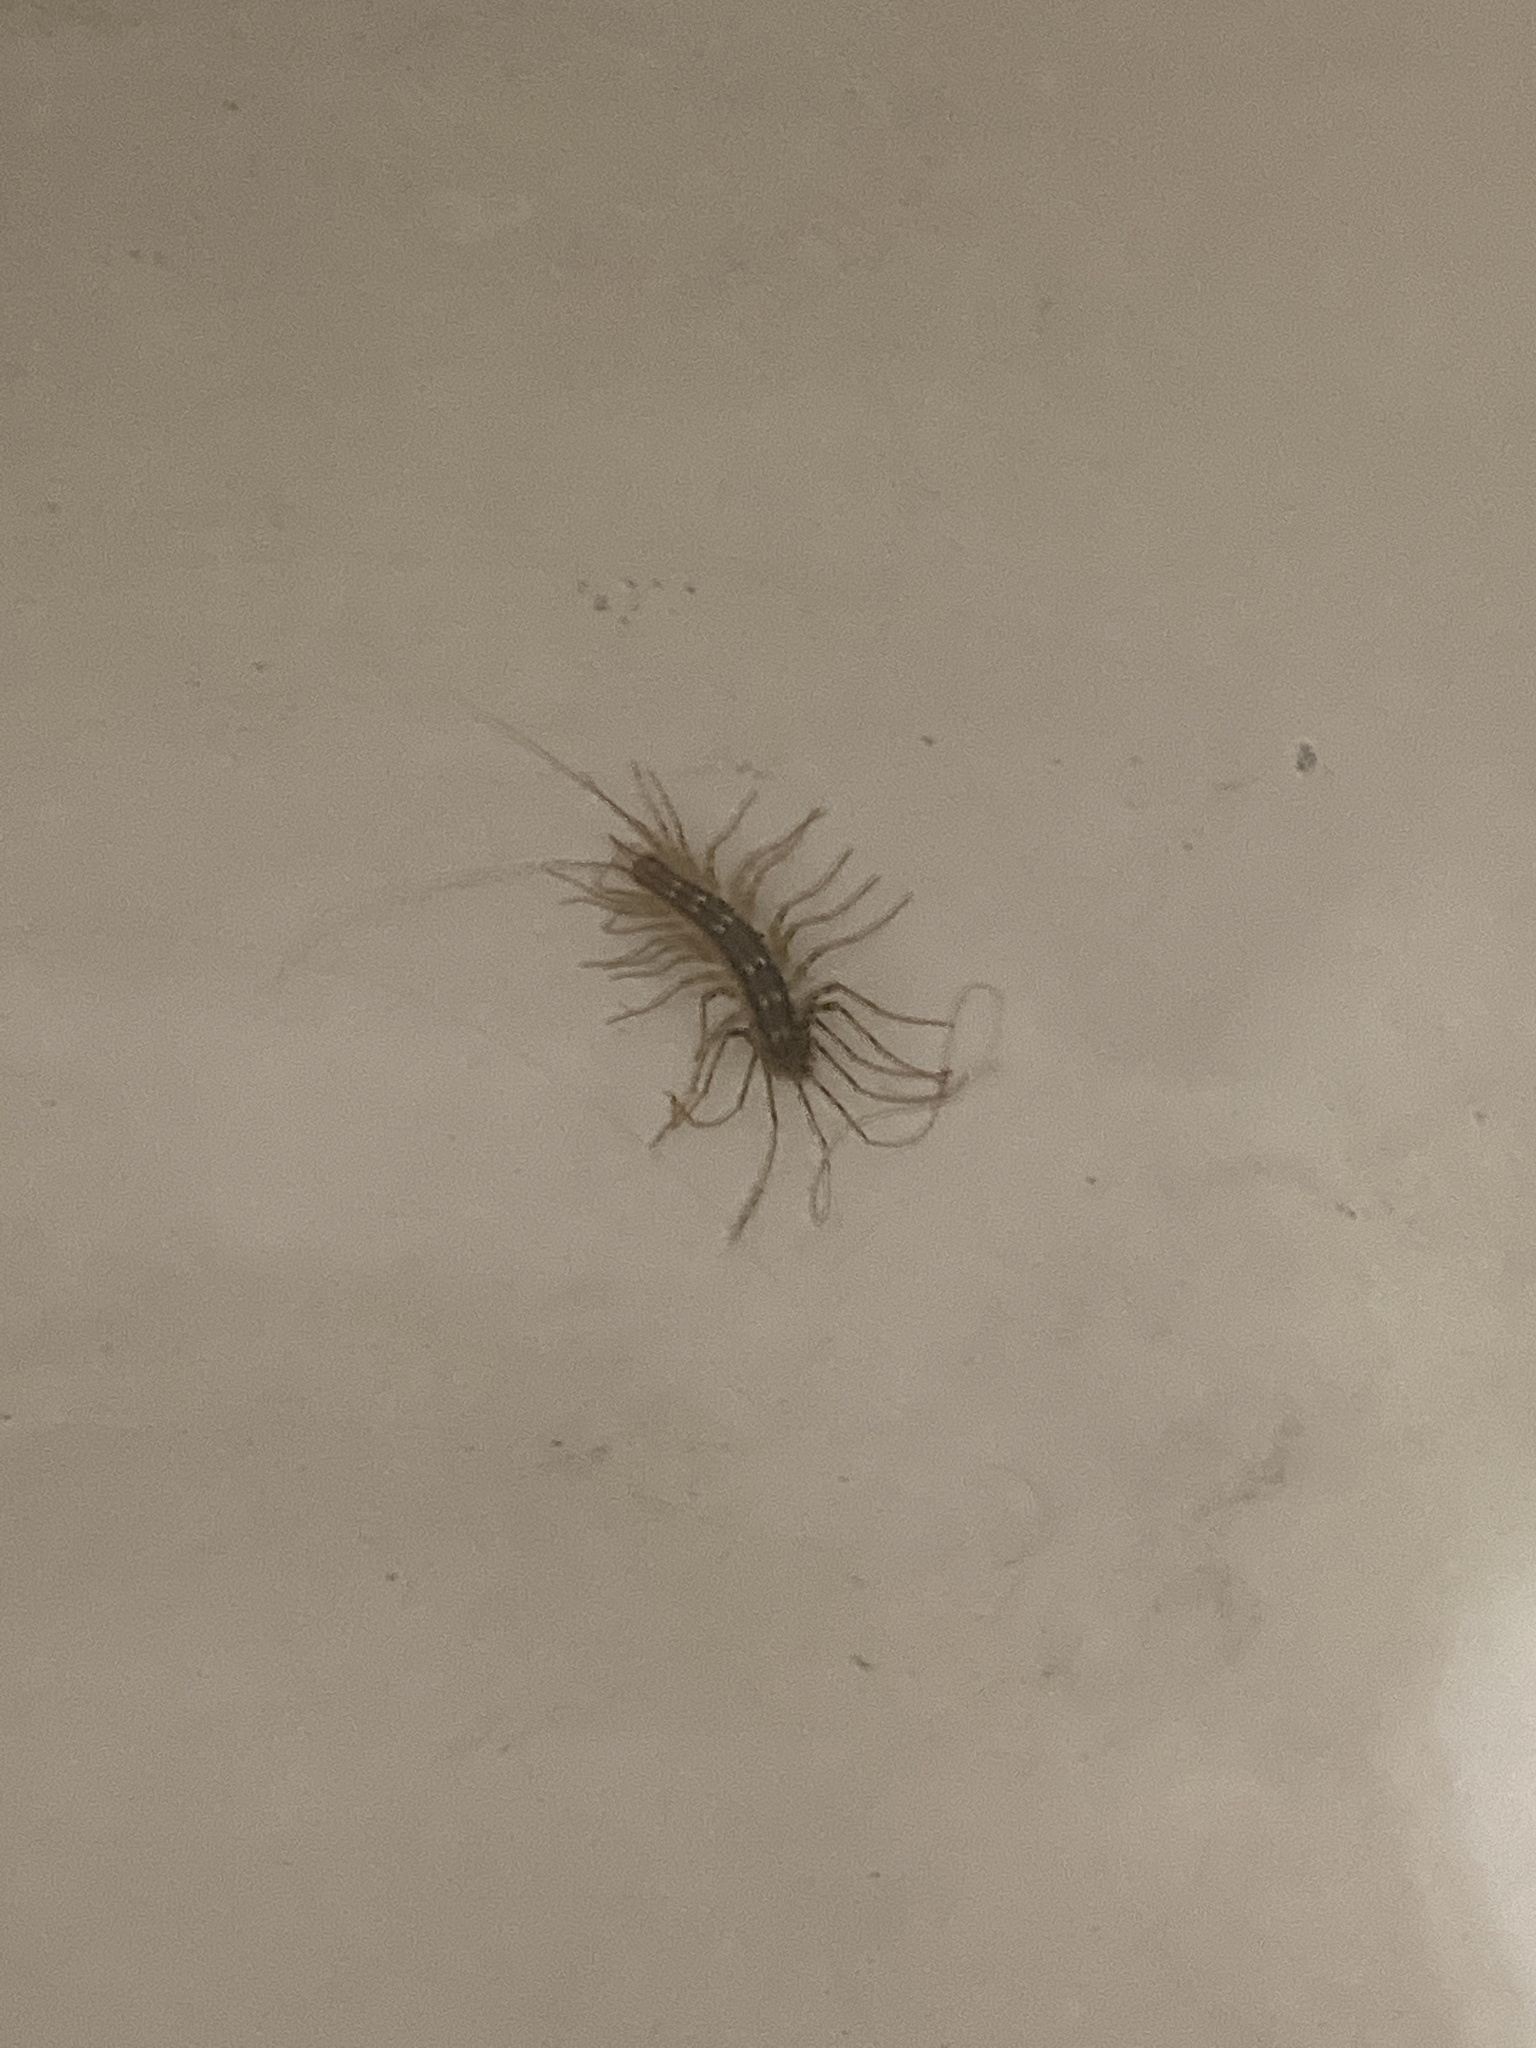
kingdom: Animalia
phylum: Arthropoda
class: Chilopoda
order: Scutigeromorpha
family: Scutigeridae
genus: Scutigera
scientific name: Scutigera coleoptrata
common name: House centipede
